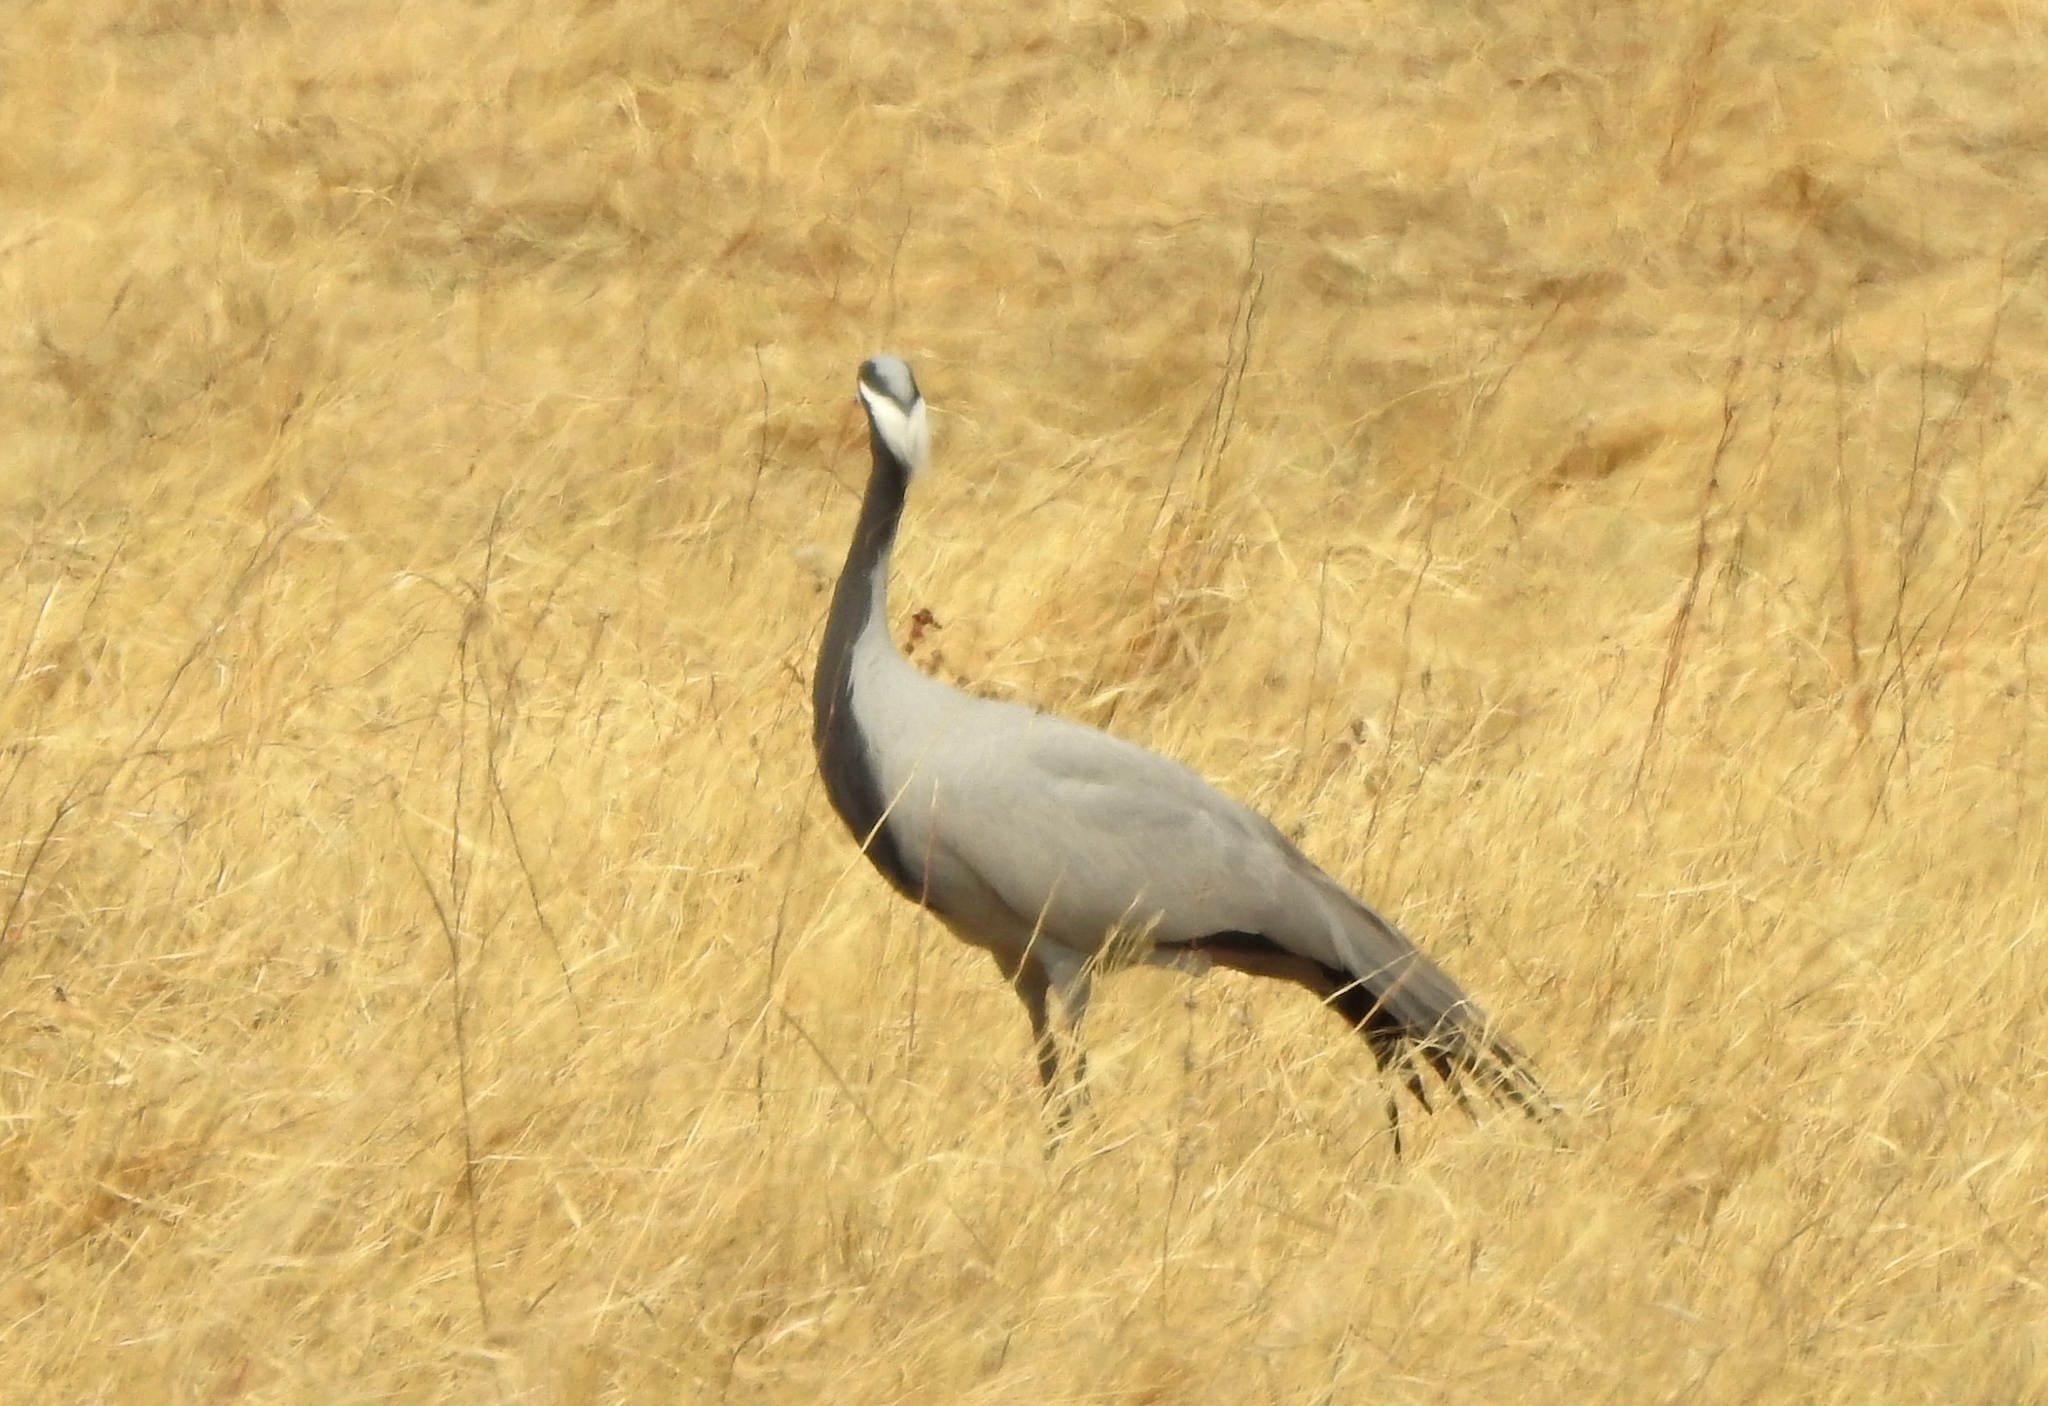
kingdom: Animalia
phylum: Chordata
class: Aves
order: Gruiformes
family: Gruidae
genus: Anthropoides
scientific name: Anthropoides virgo
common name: Demoiselle crane
